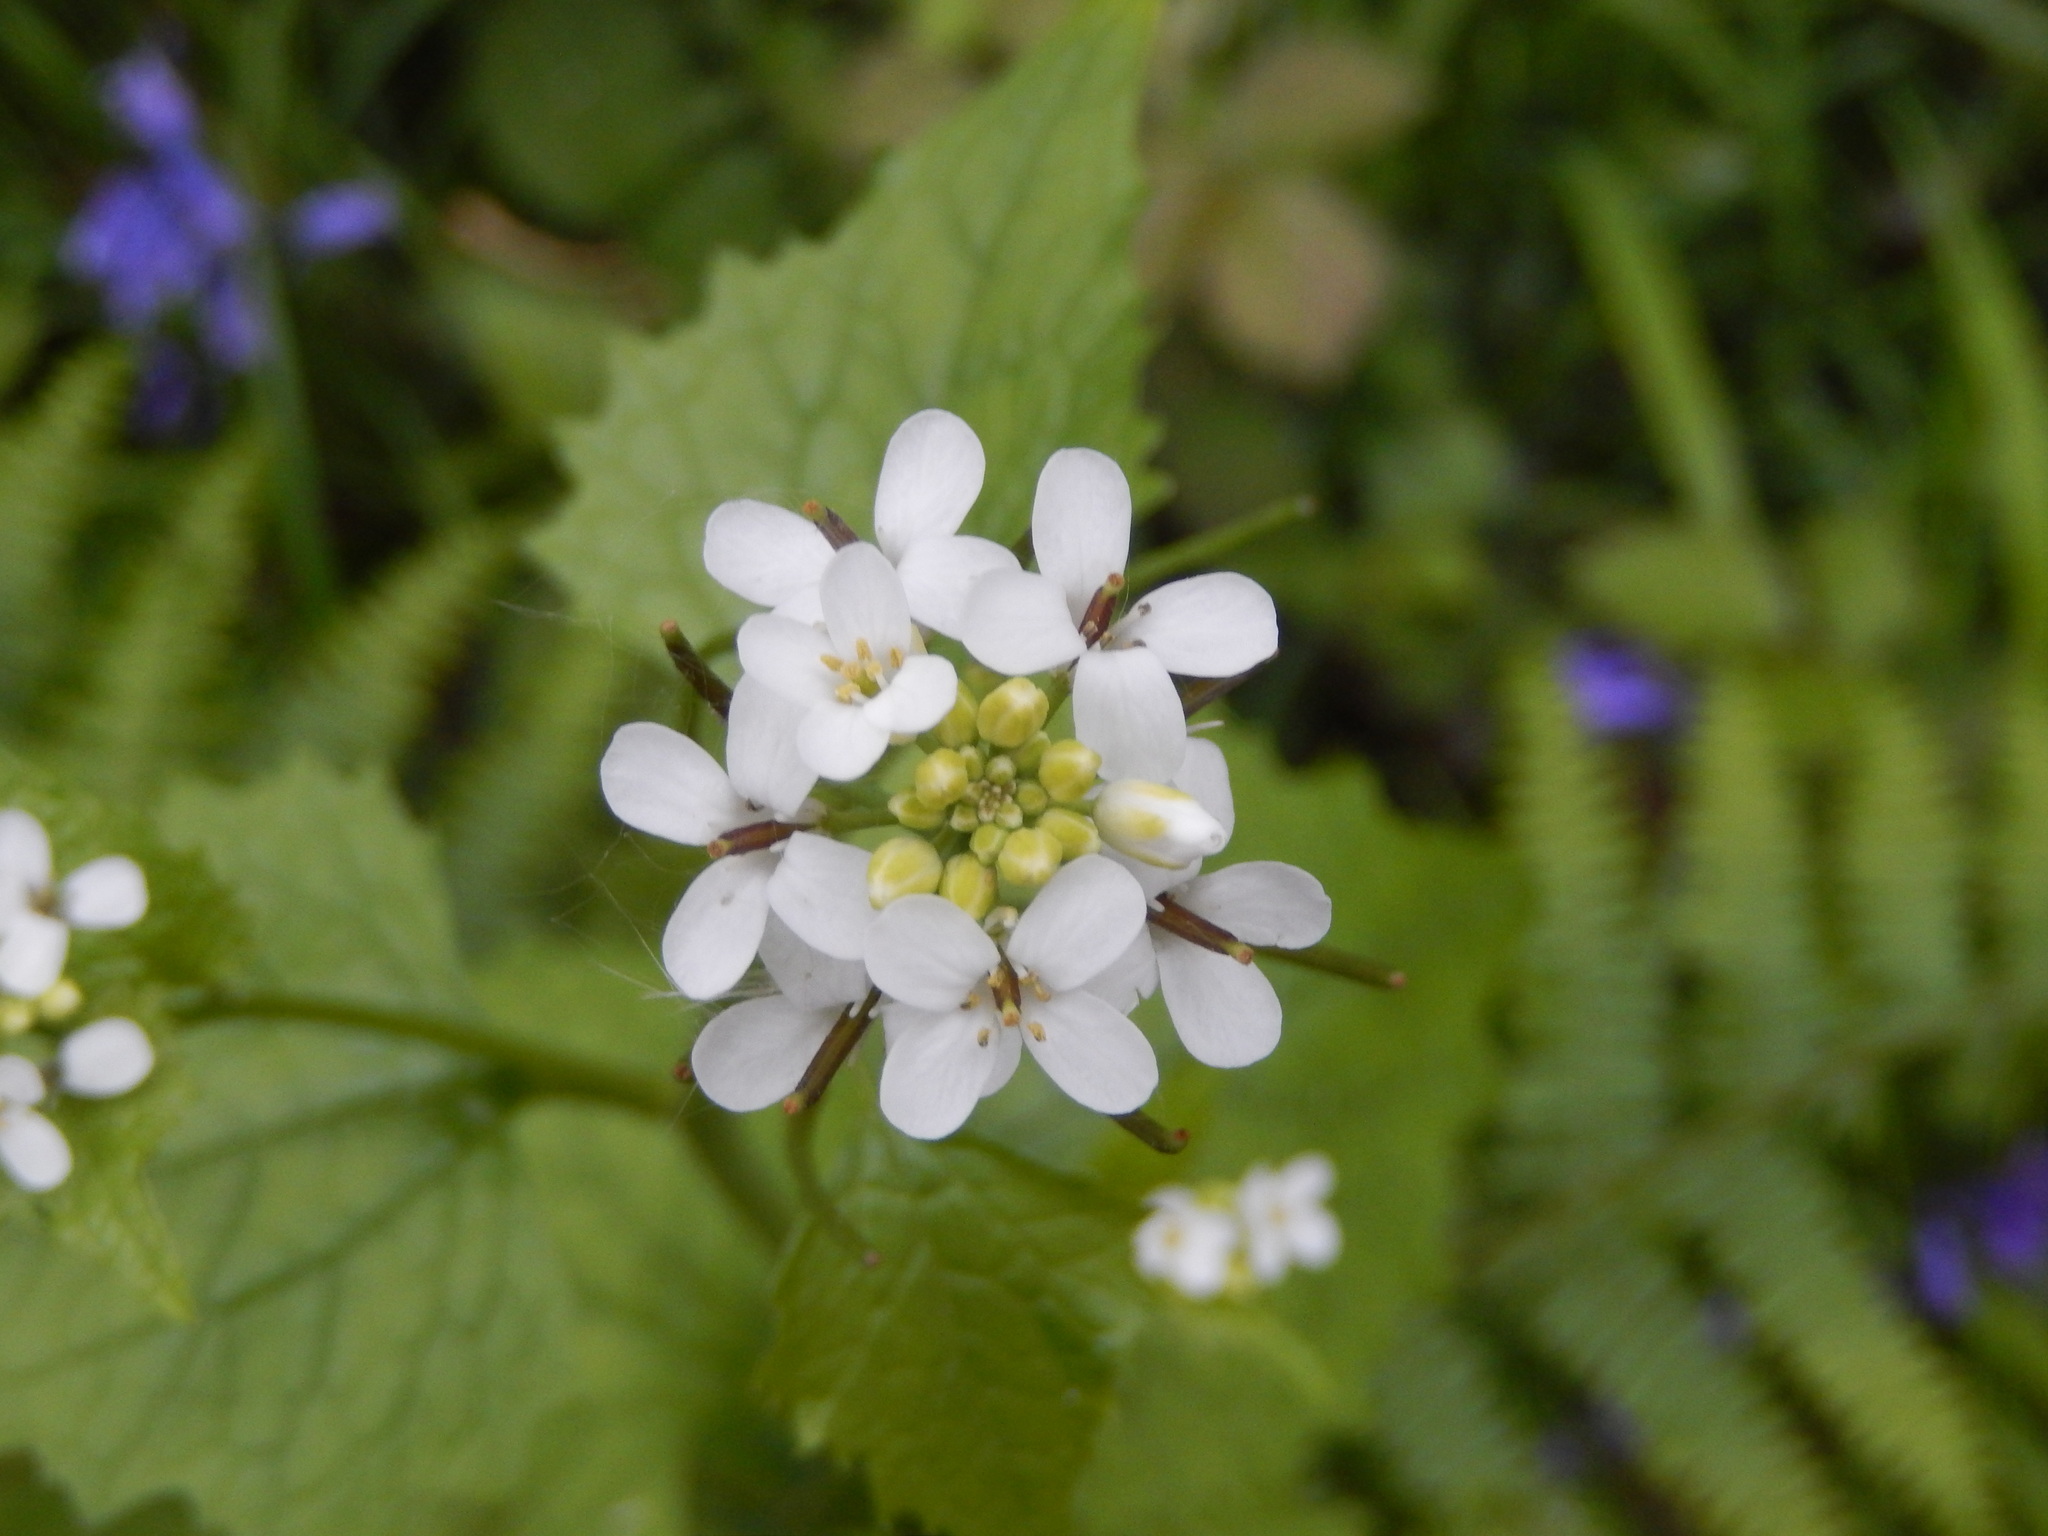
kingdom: Plantae
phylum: Tracheophyta
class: Magnoliopsida
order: Brassicales
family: Brassicaceae
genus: Alliaria
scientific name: Alliaria petiolata
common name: Garlic mustard
